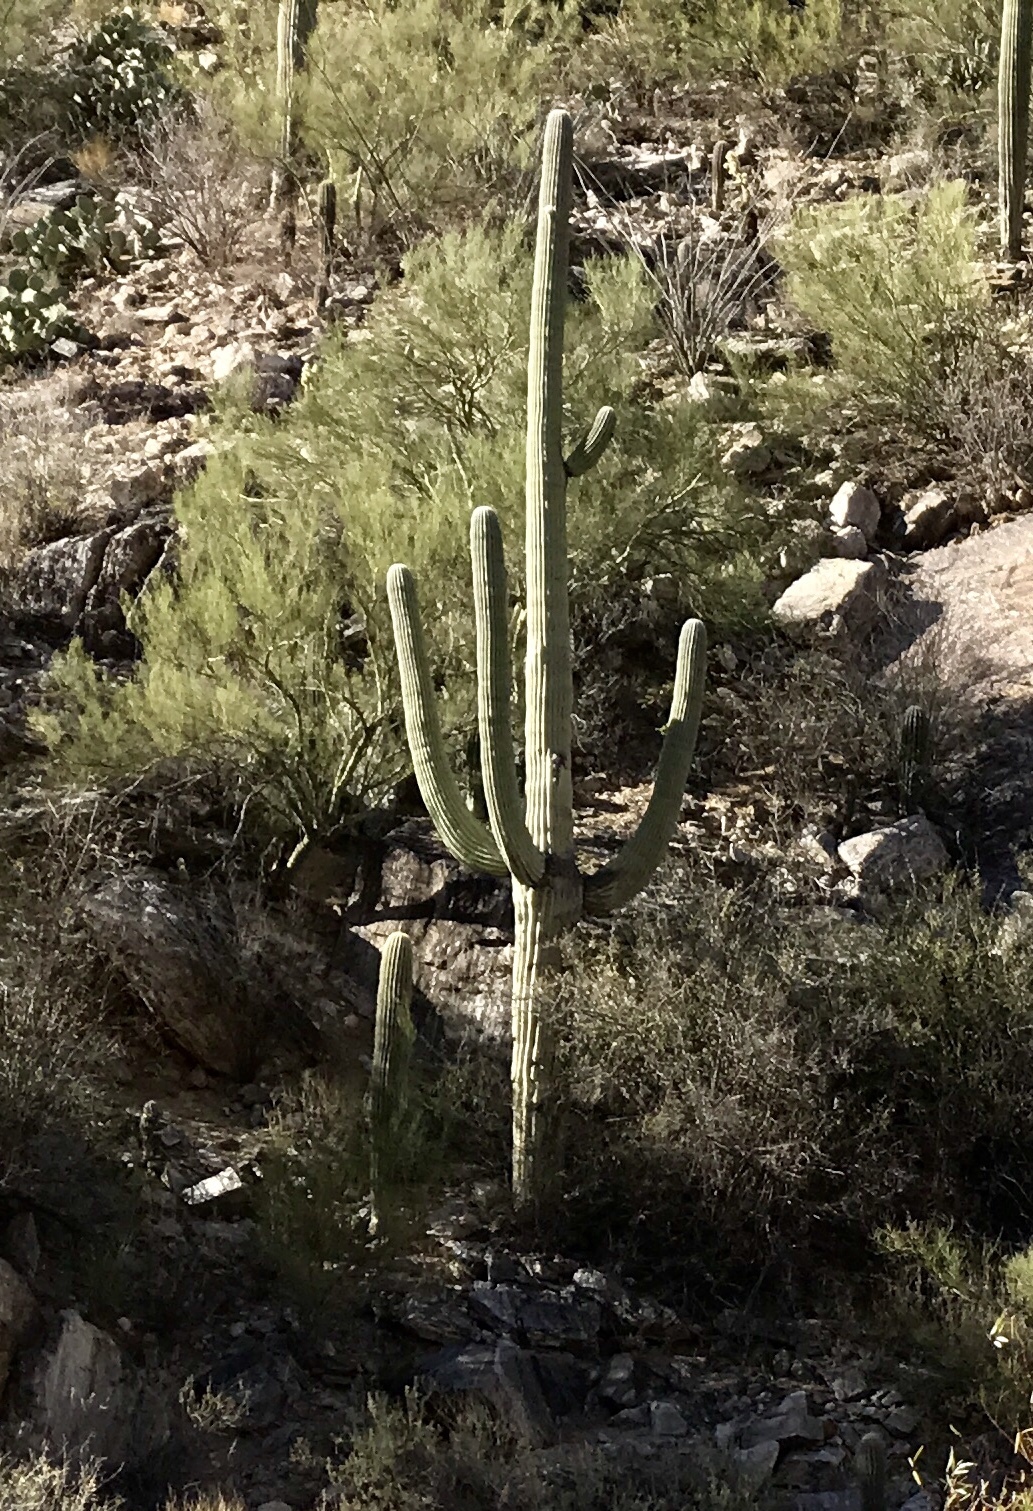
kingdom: Plantae
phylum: Tracheophyta
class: Magnoliopsida
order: Caryophyllales
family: Cactaceae
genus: Carnegiea
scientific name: Carnegiea gigantea
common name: Saguaro
